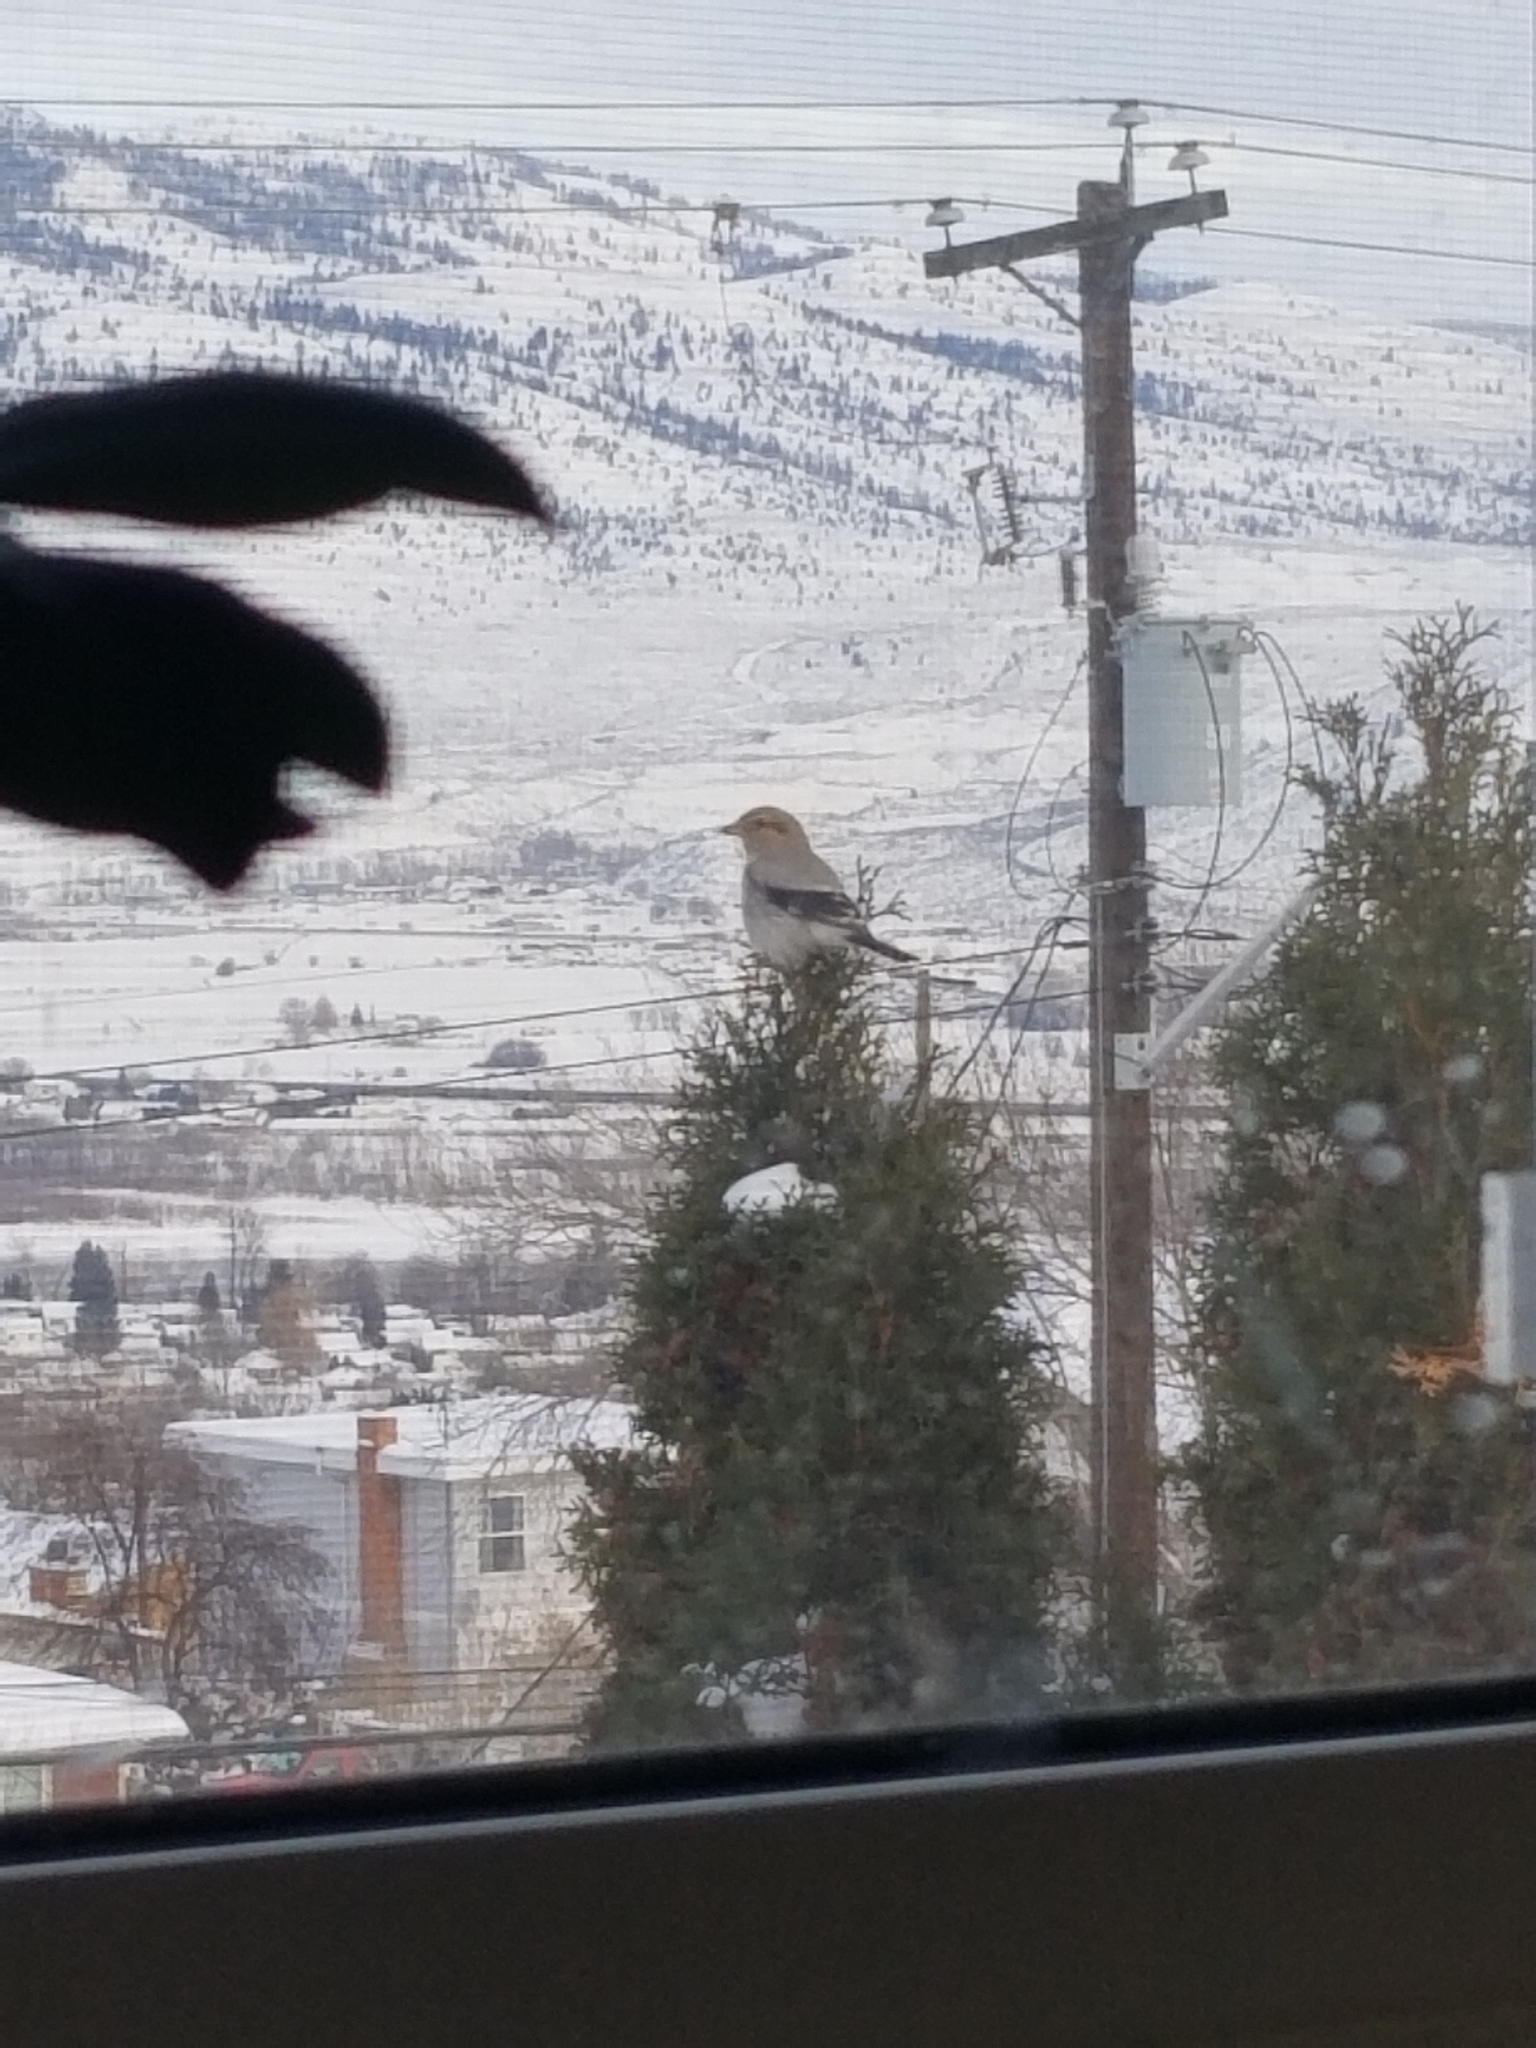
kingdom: Animalia
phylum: Chordata
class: Aves
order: Passeriformes
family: Laniidae
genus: Lanius
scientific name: Lanius borealis
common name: Northern shrike
